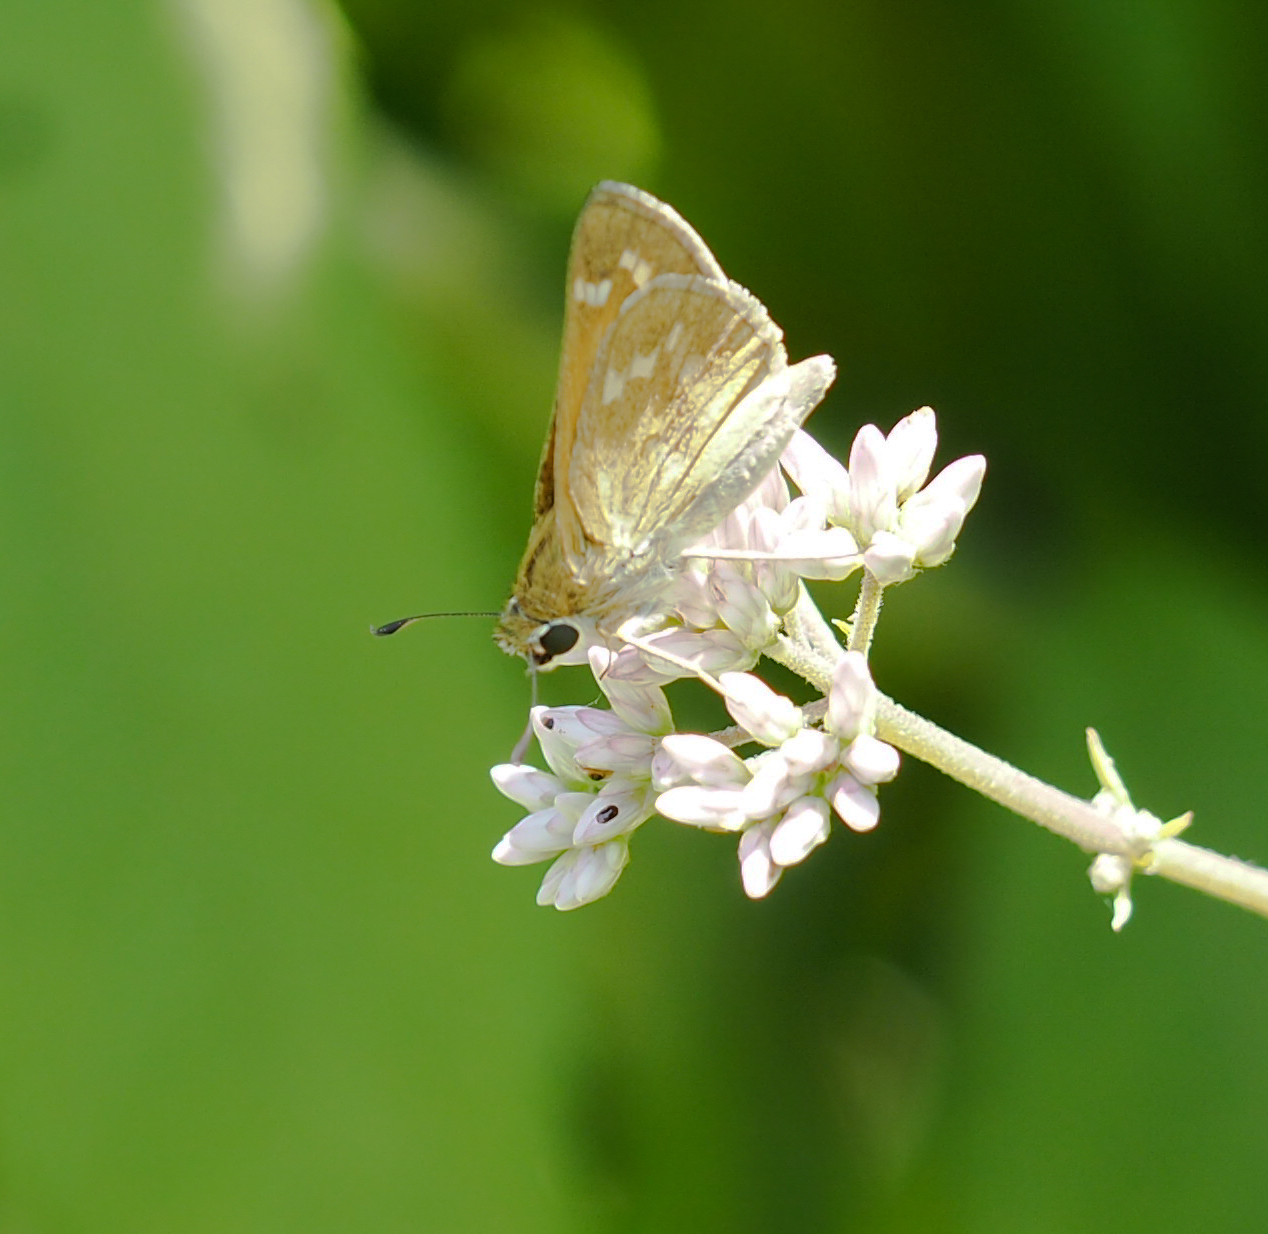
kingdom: Animalia
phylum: Arthropoda
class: Insecta
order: Lepidoptera
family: Hesperiidae
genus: Atalopedes
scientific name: Atalopedes
